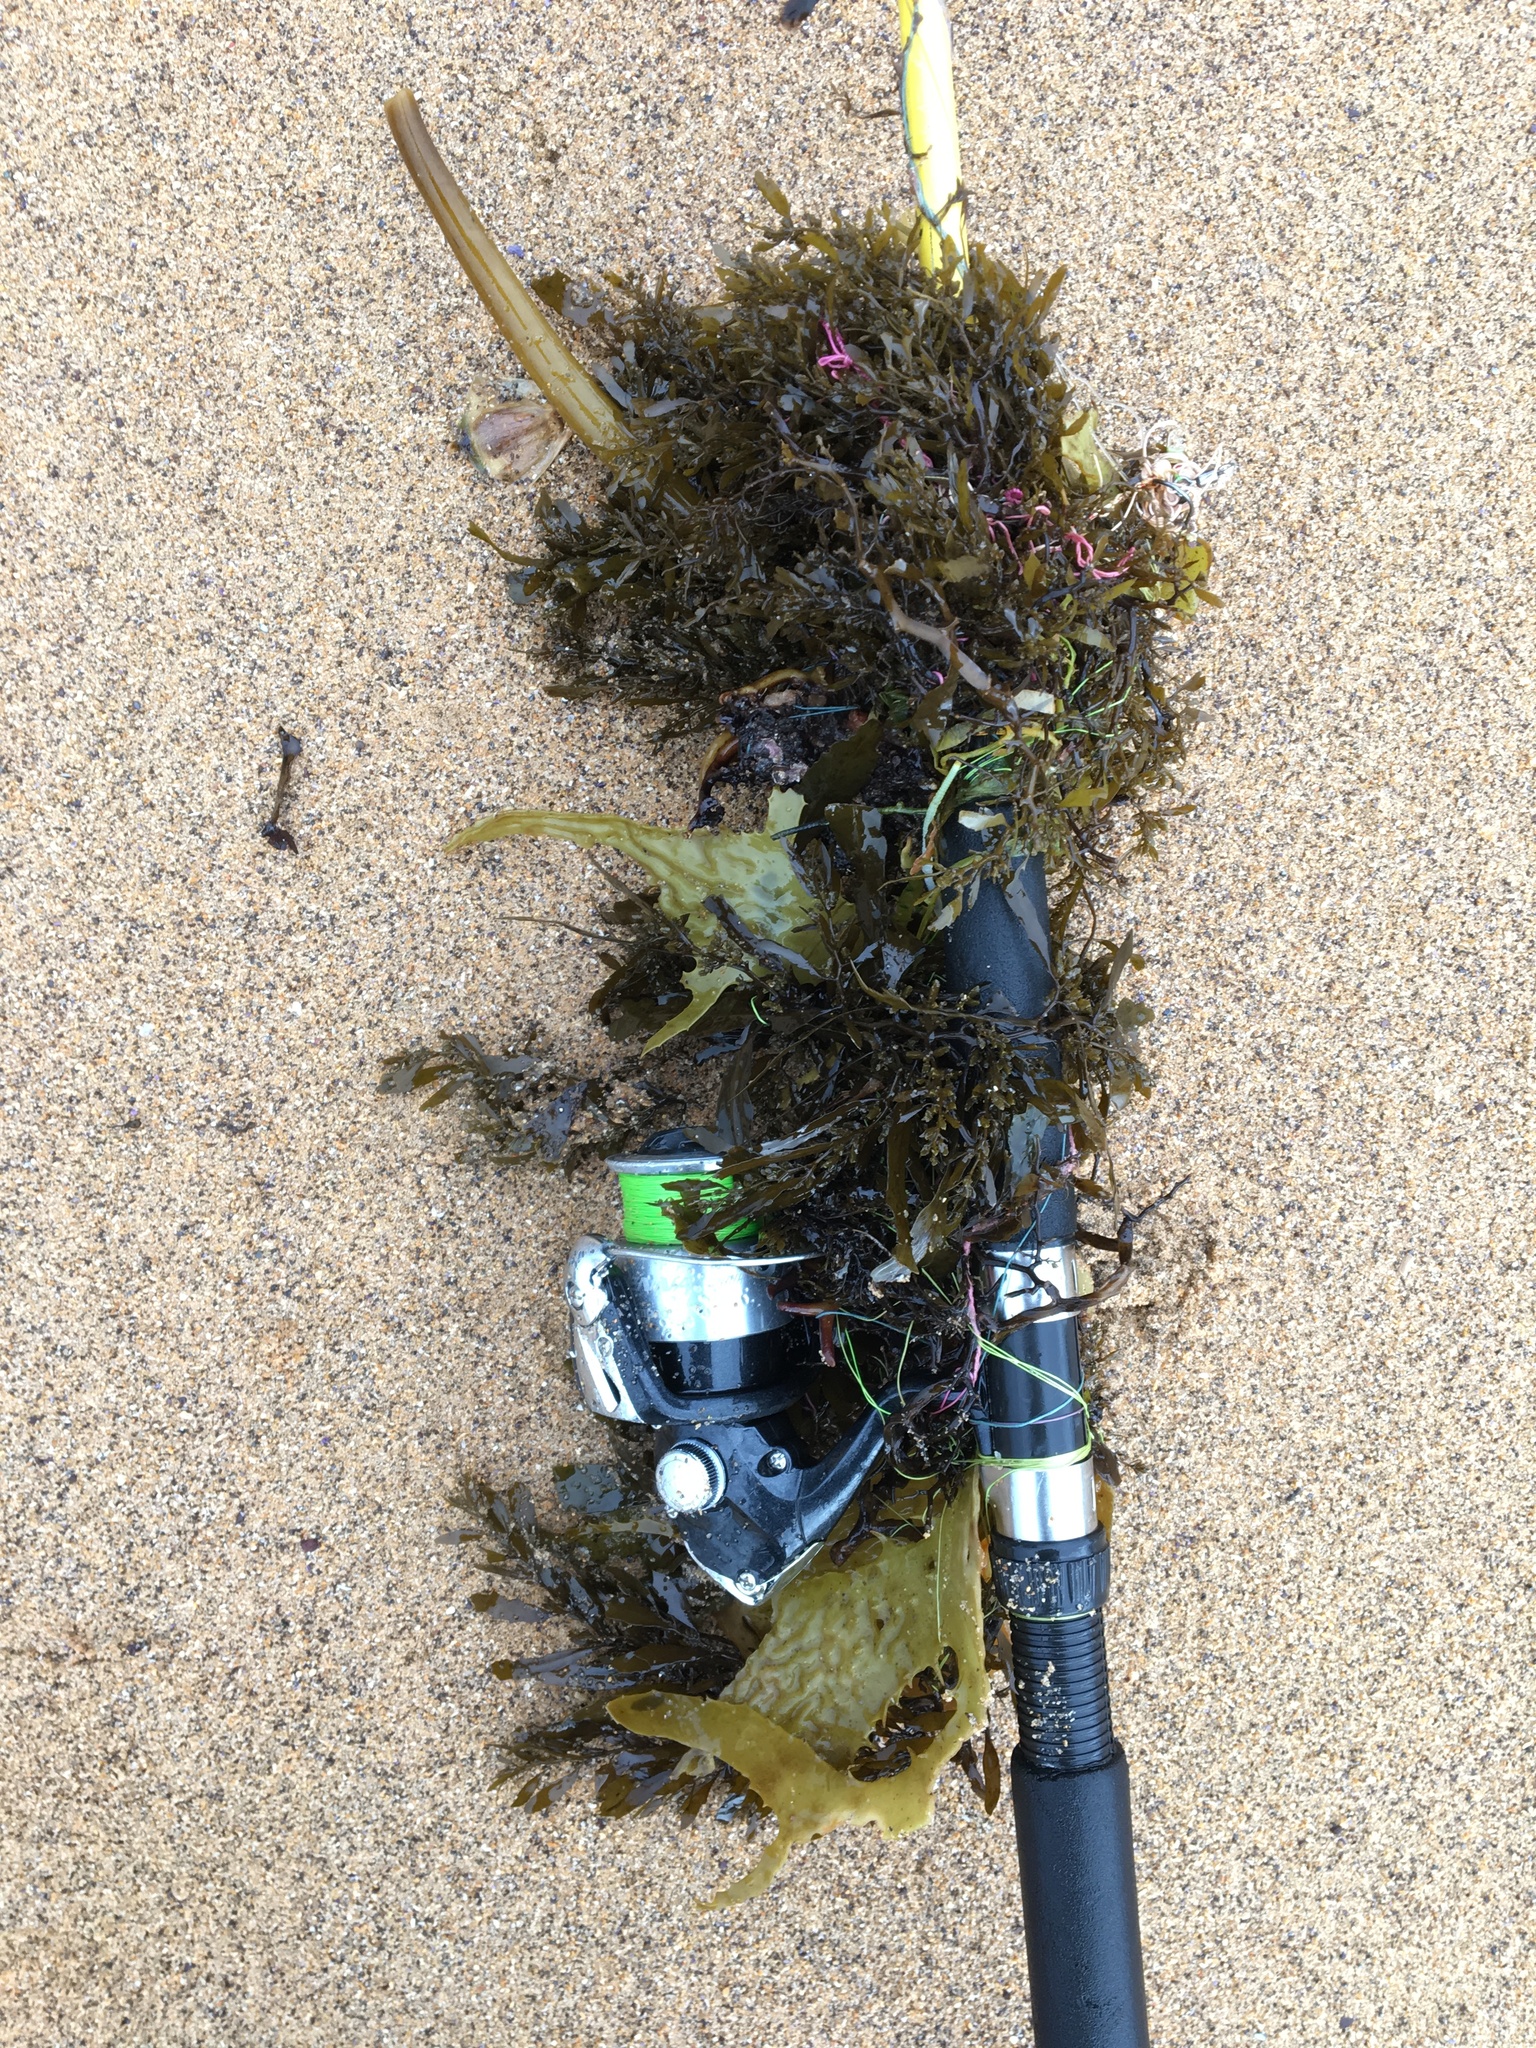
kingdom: Chromista
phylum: Ochrophyta
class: Phaeophyceae
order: Laminariales
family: Lessoniaceae
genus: Ecklonia
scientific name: Ecklonia radiata
